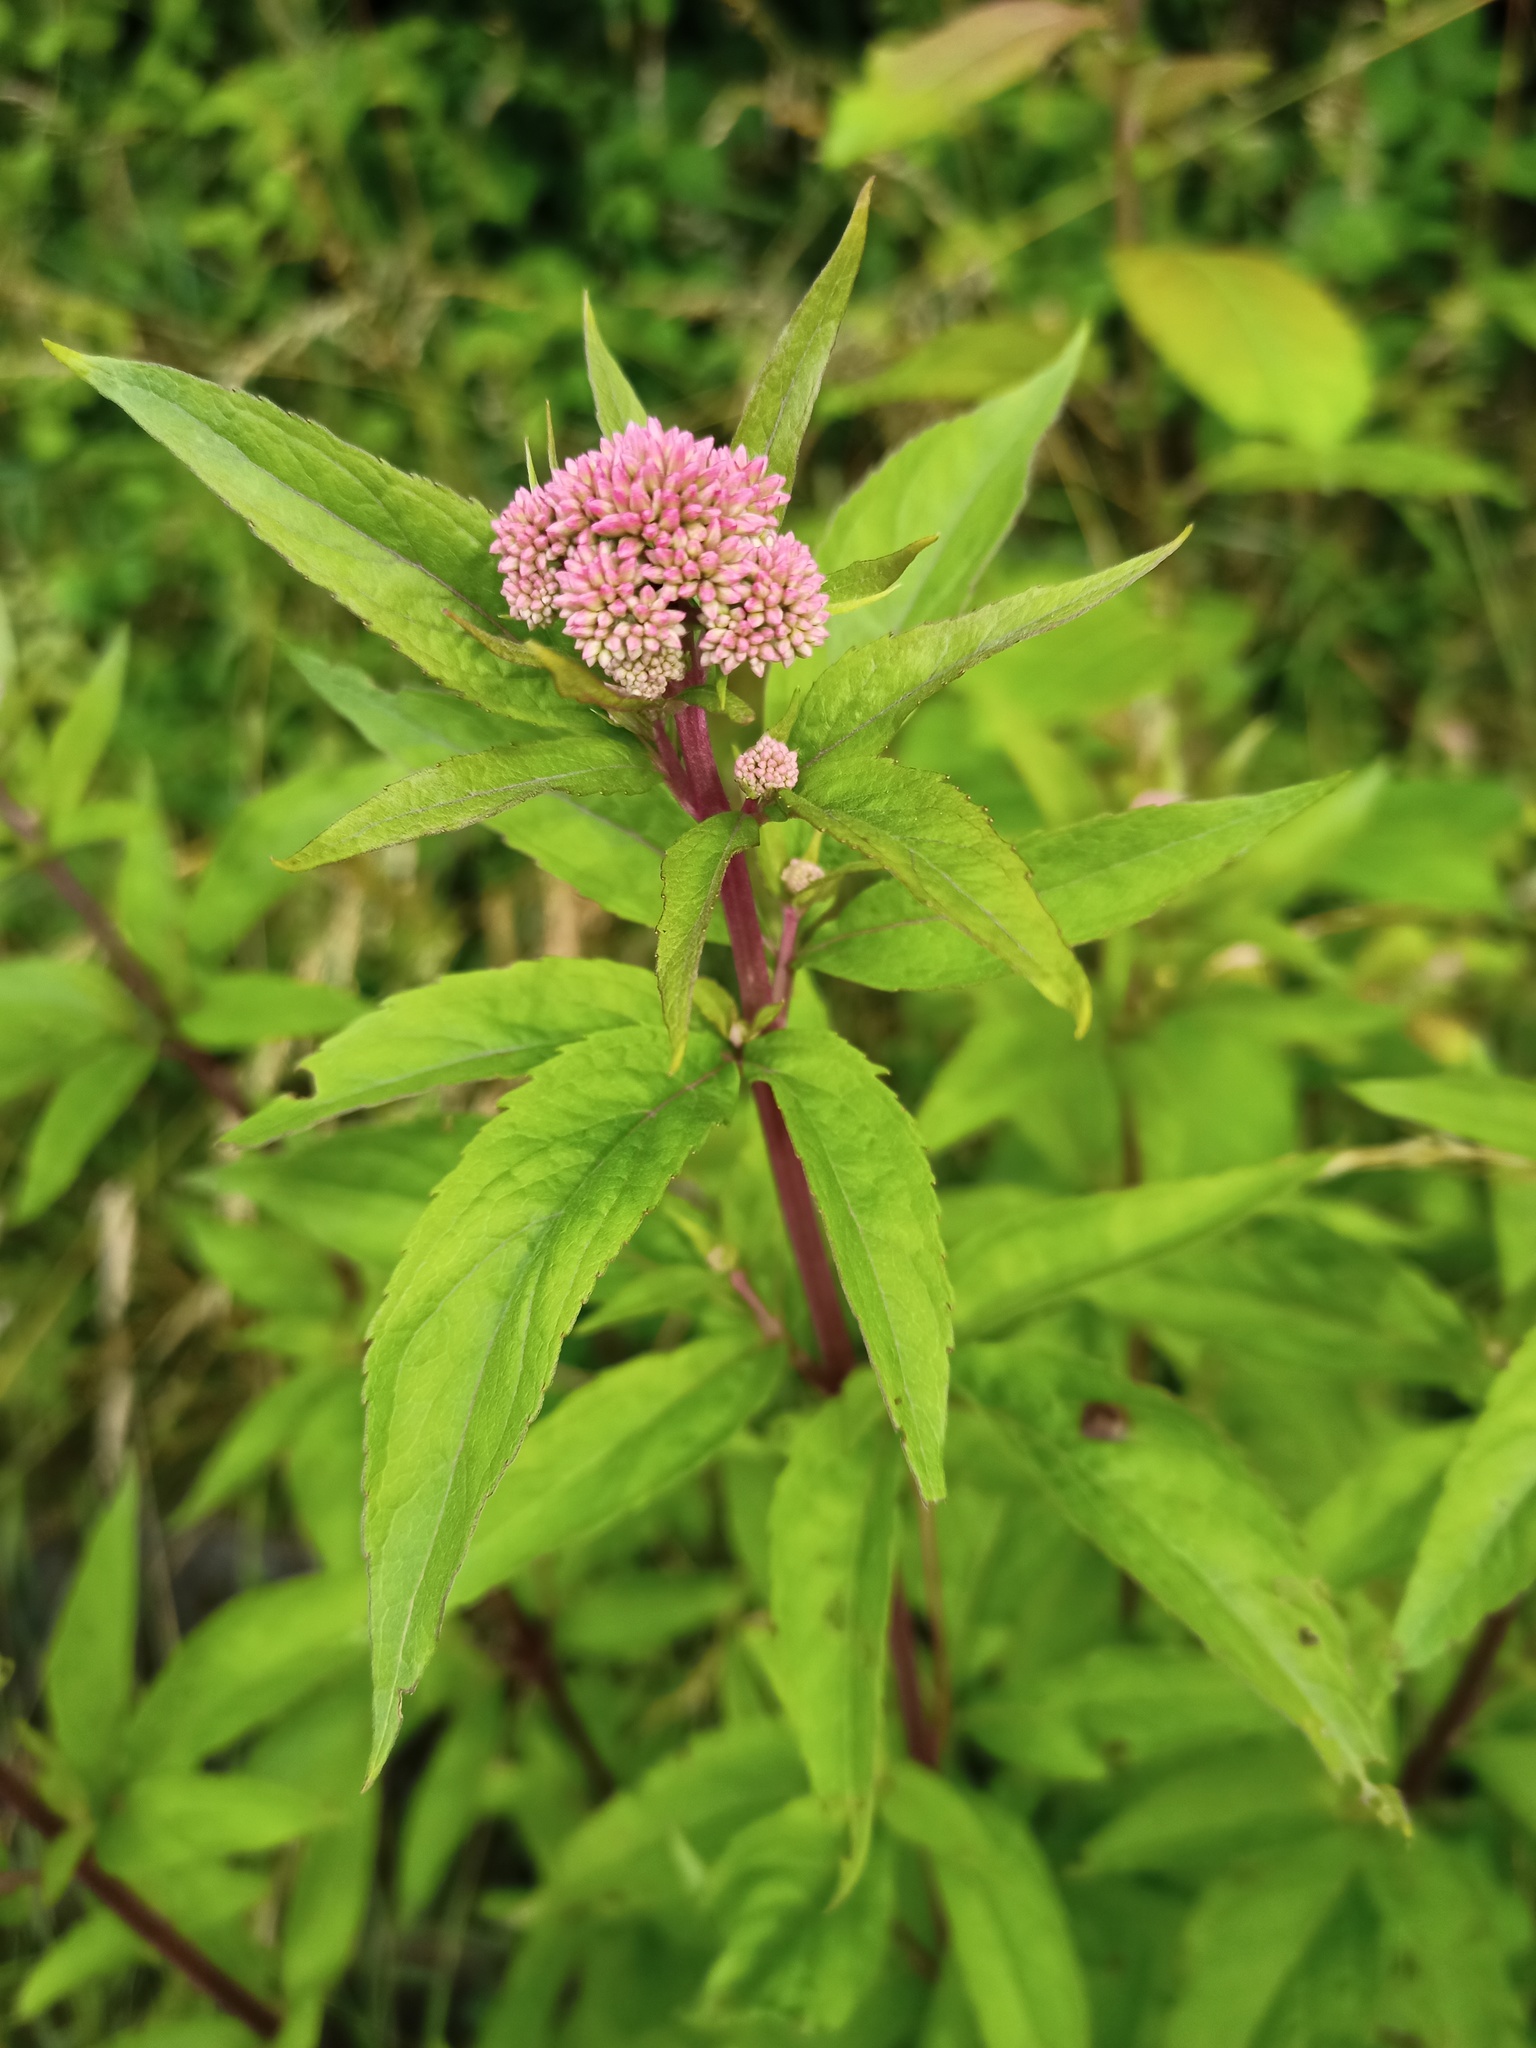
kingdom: Plantae
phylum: Tracheophyta
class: Magnoliopsida
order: Asterales
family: Asteraceae
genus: Eupatorium
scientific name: Eupatorium cannabinum
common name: Hemp-agrimony
